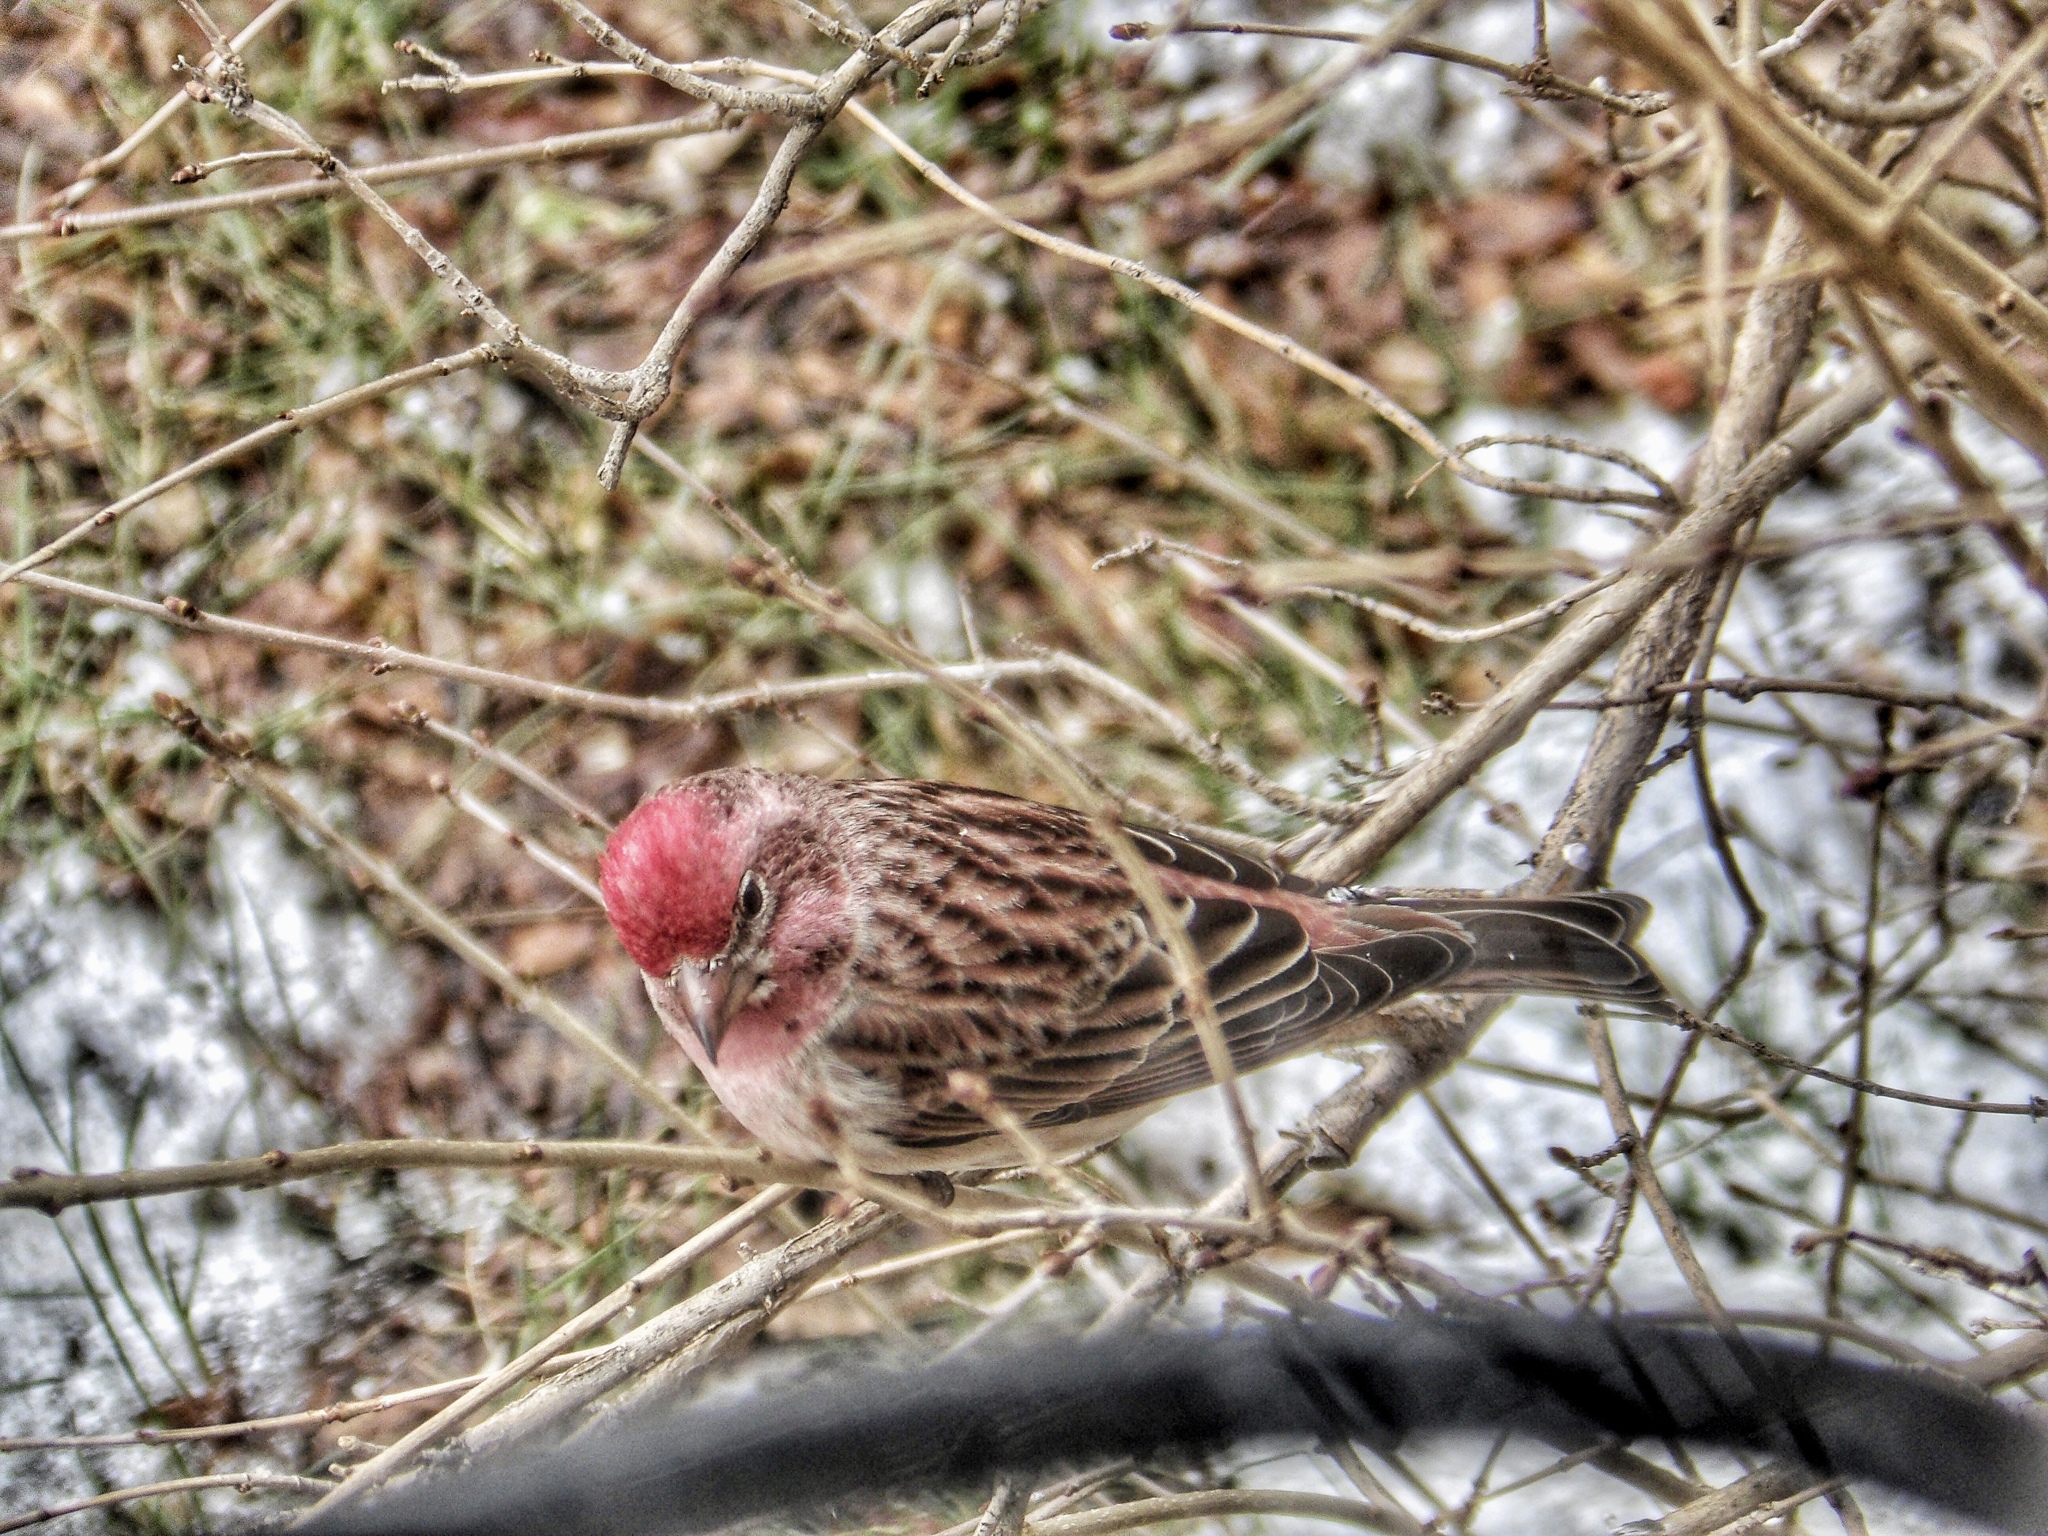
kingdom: Animalia
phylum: Chordata
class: Aves
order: Passeriformes
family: Fringillidae
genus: Haemorhous
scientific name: Haemorhous cassinii
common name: Cassin's finch
